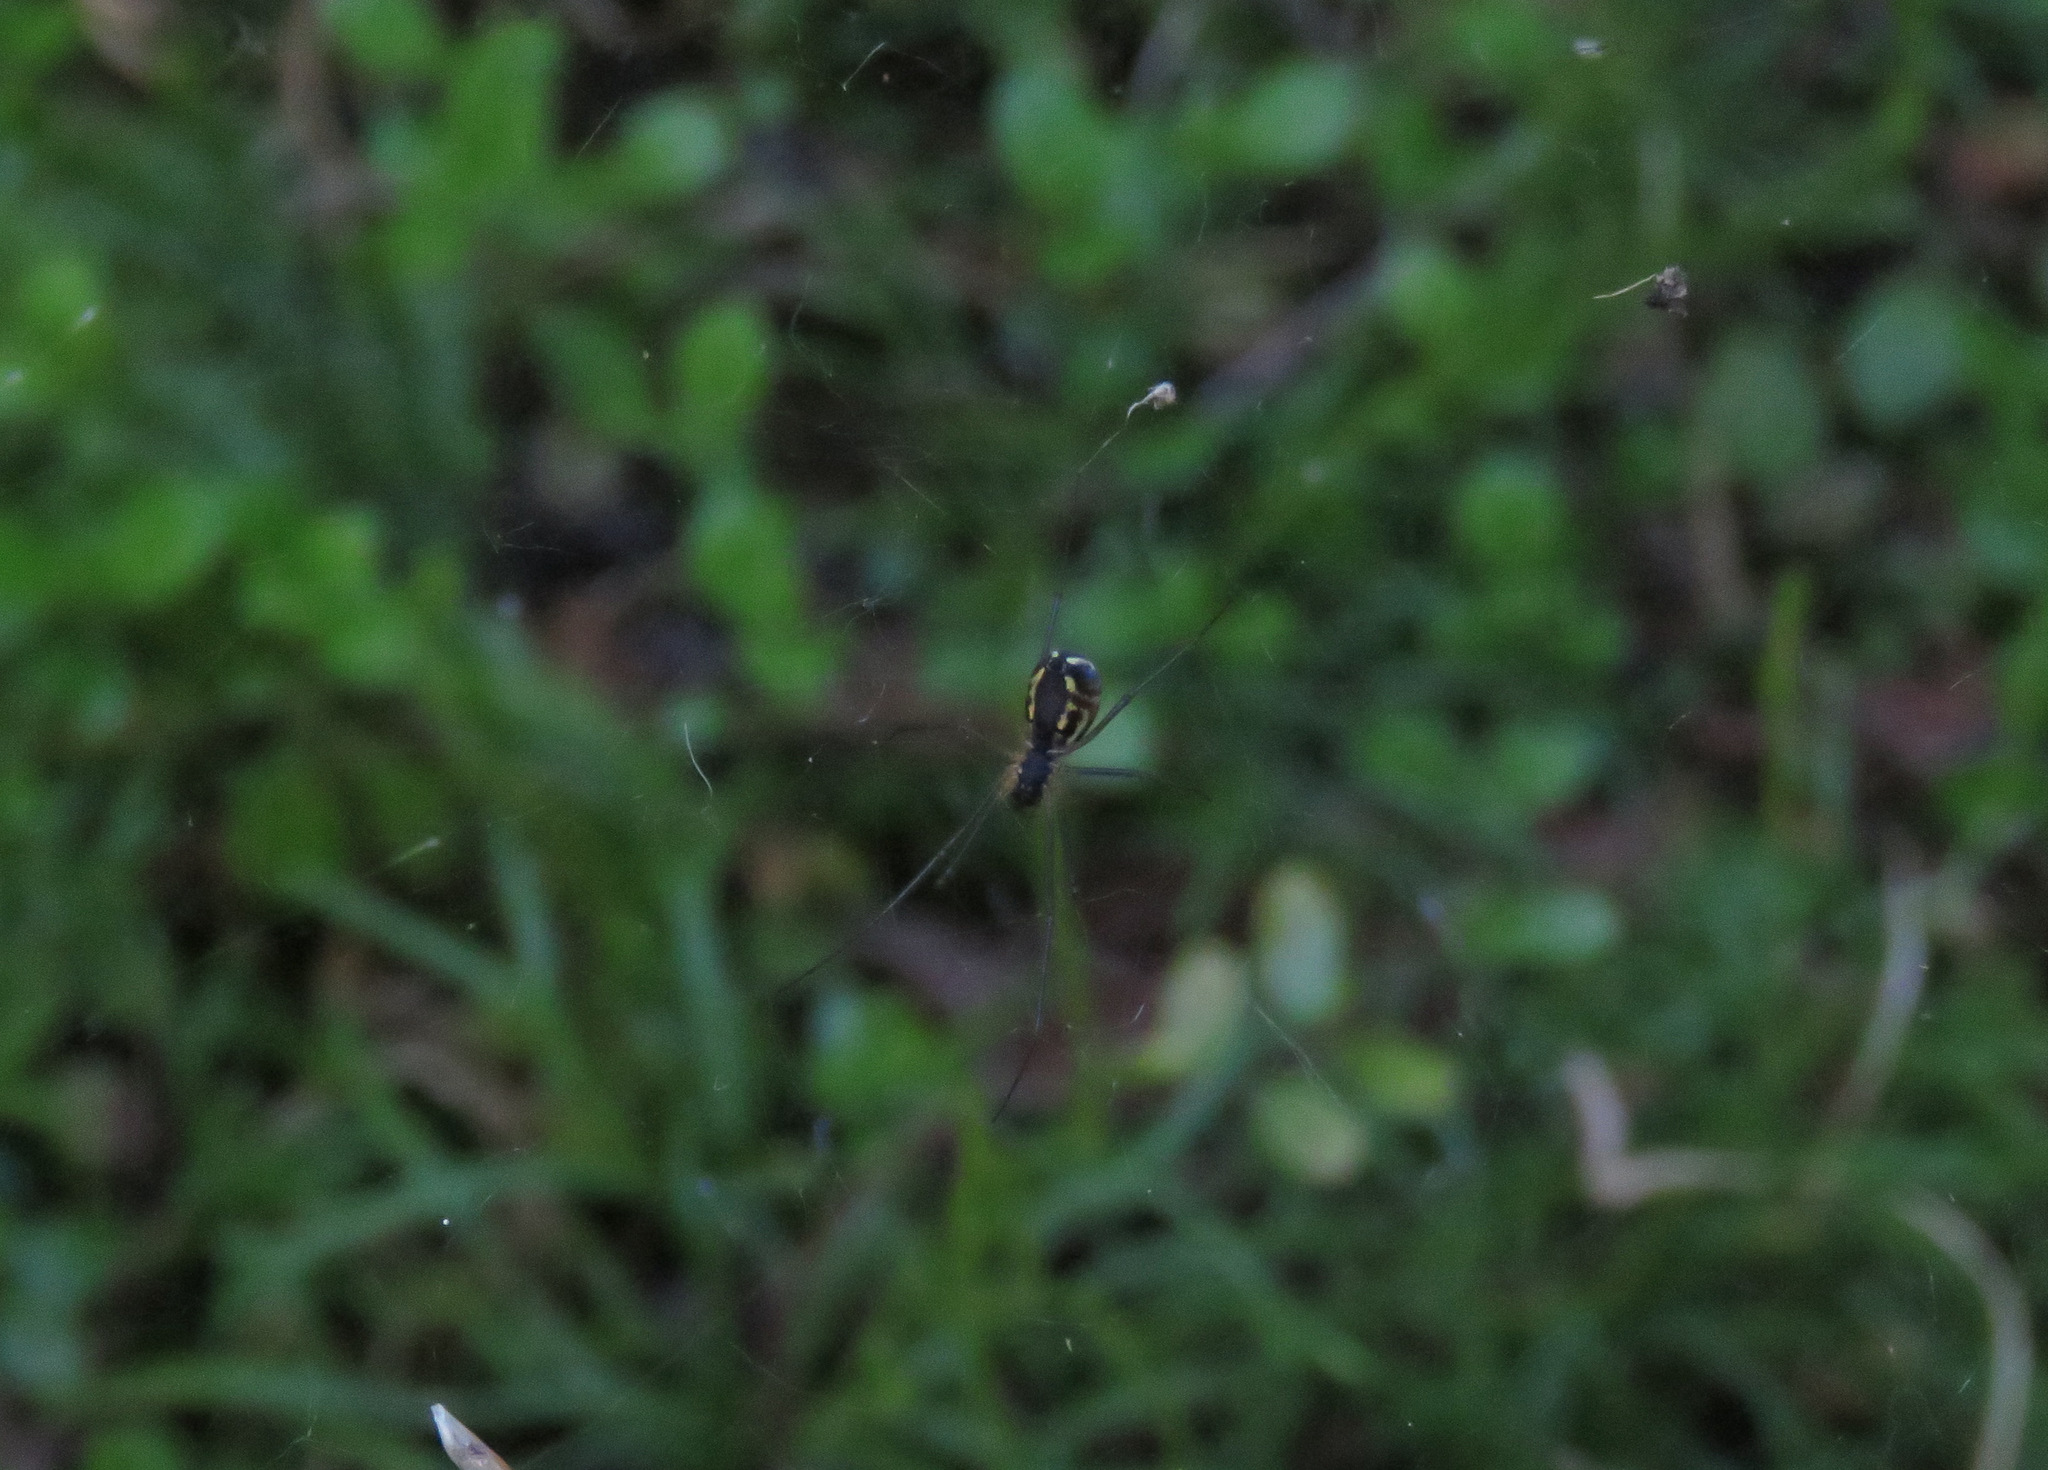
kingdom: Animalia
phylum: Arthropoda
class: Arachnida
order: Araneae
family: Linyphiidae
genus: Neriene
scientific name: Neriene radiata
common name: Filmy dome spider
